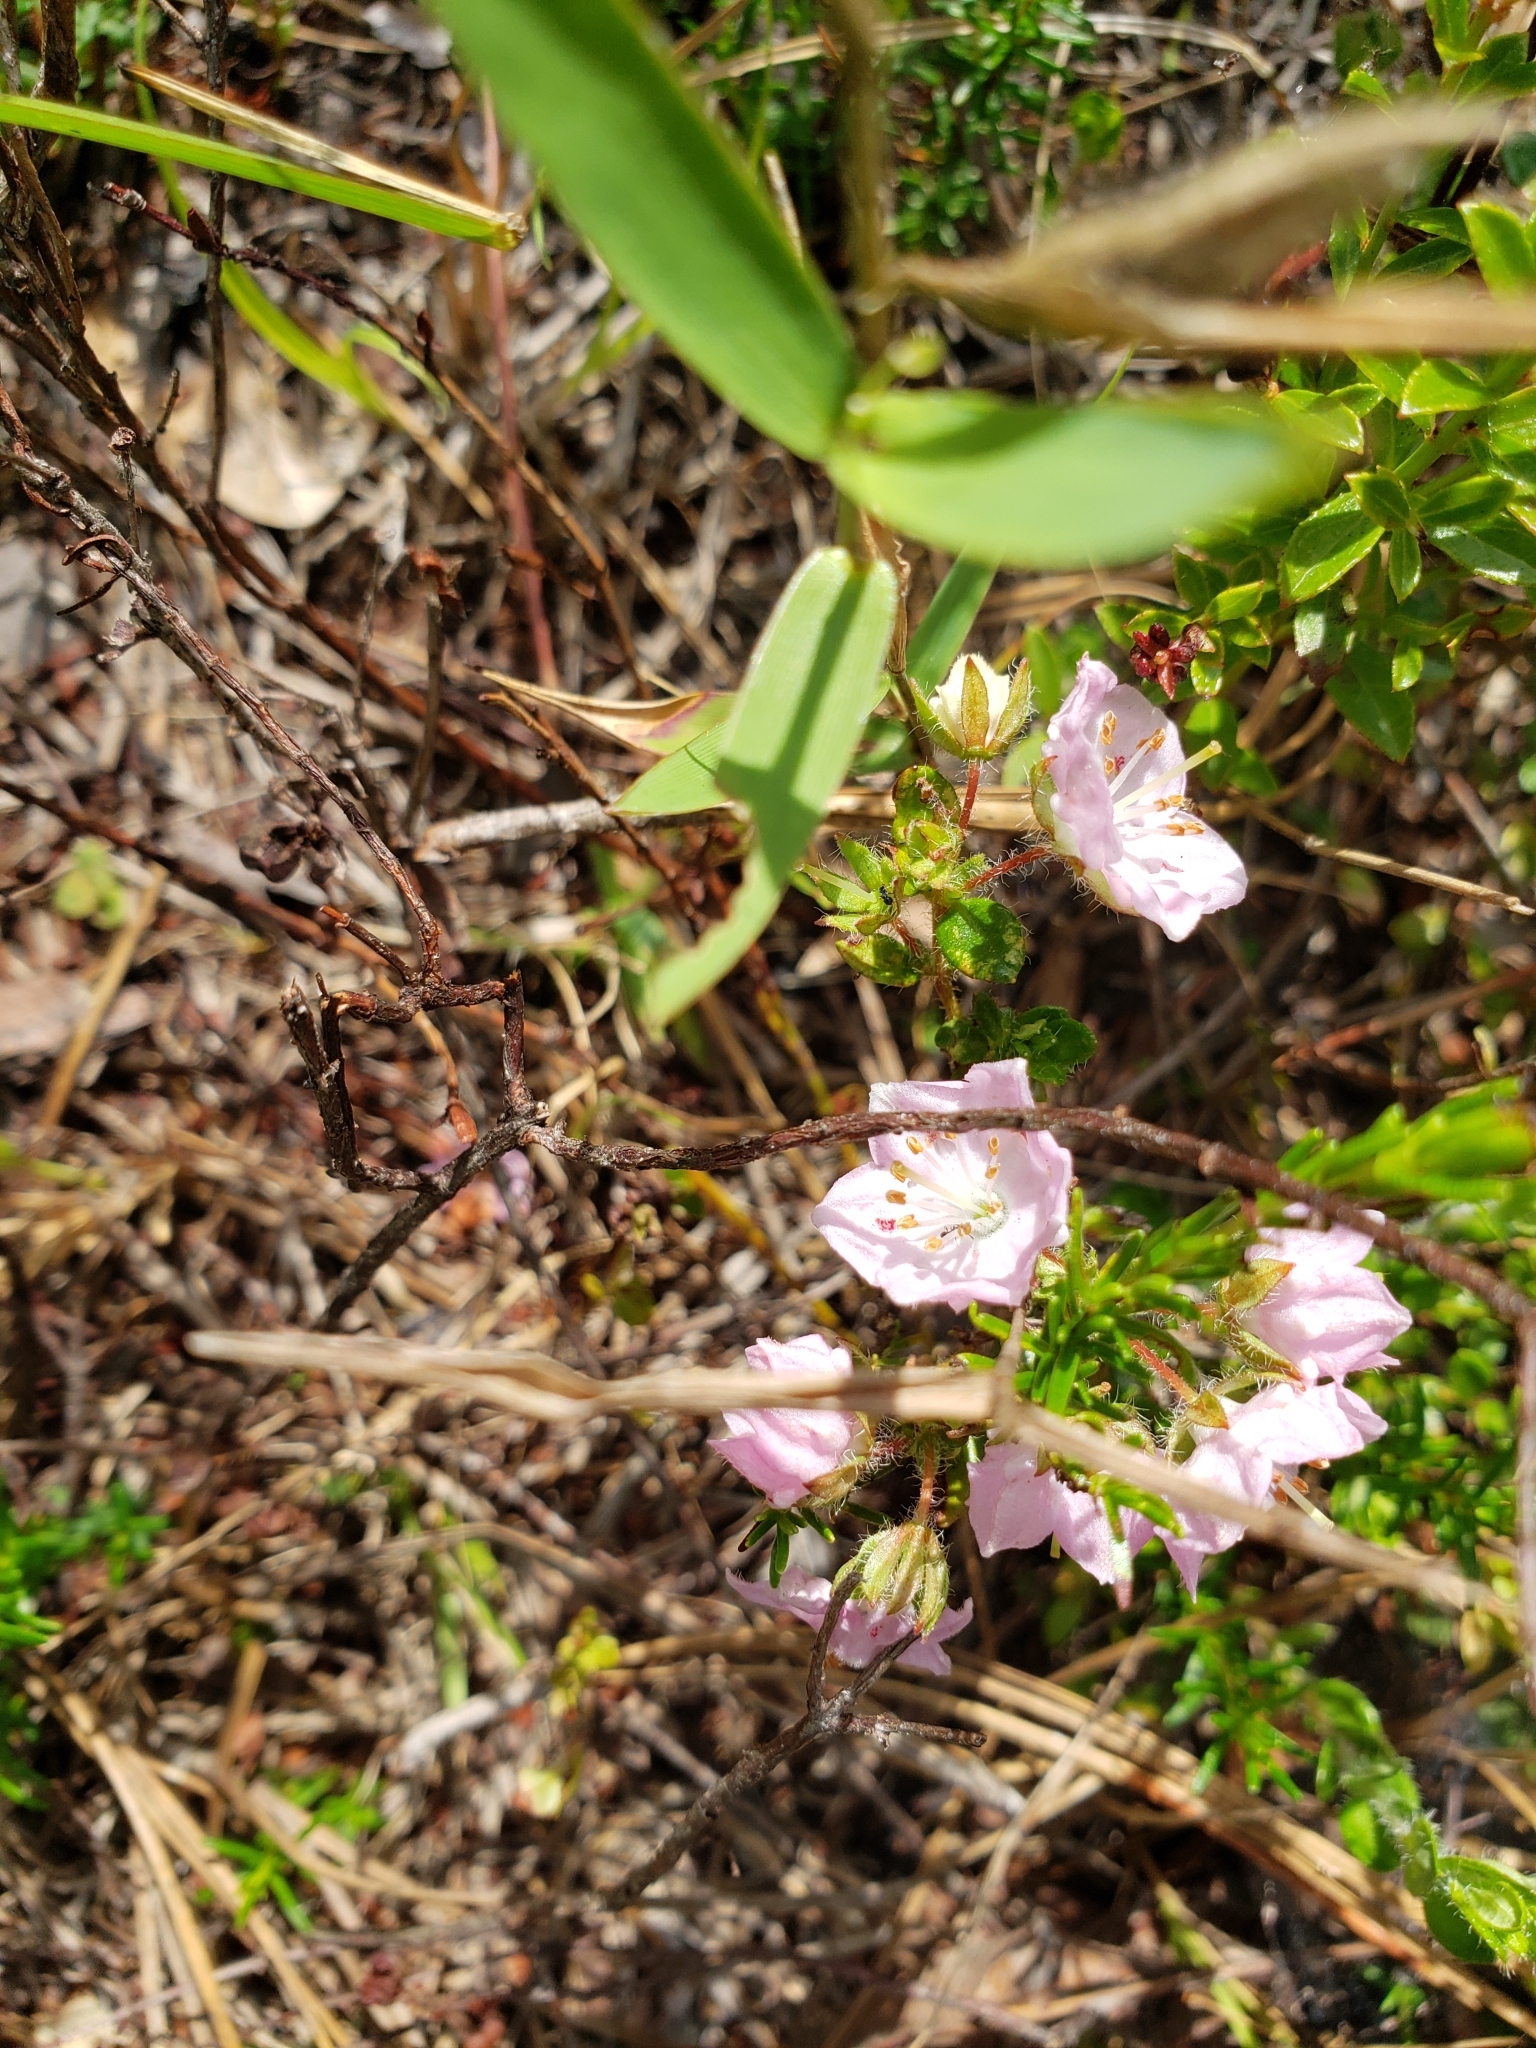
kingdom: Plantae
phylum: Tracheophyta
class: Magnoliopsida
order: Ericales
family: Ericaceae
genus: Kalmia
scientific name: Kalmia hirsuta
